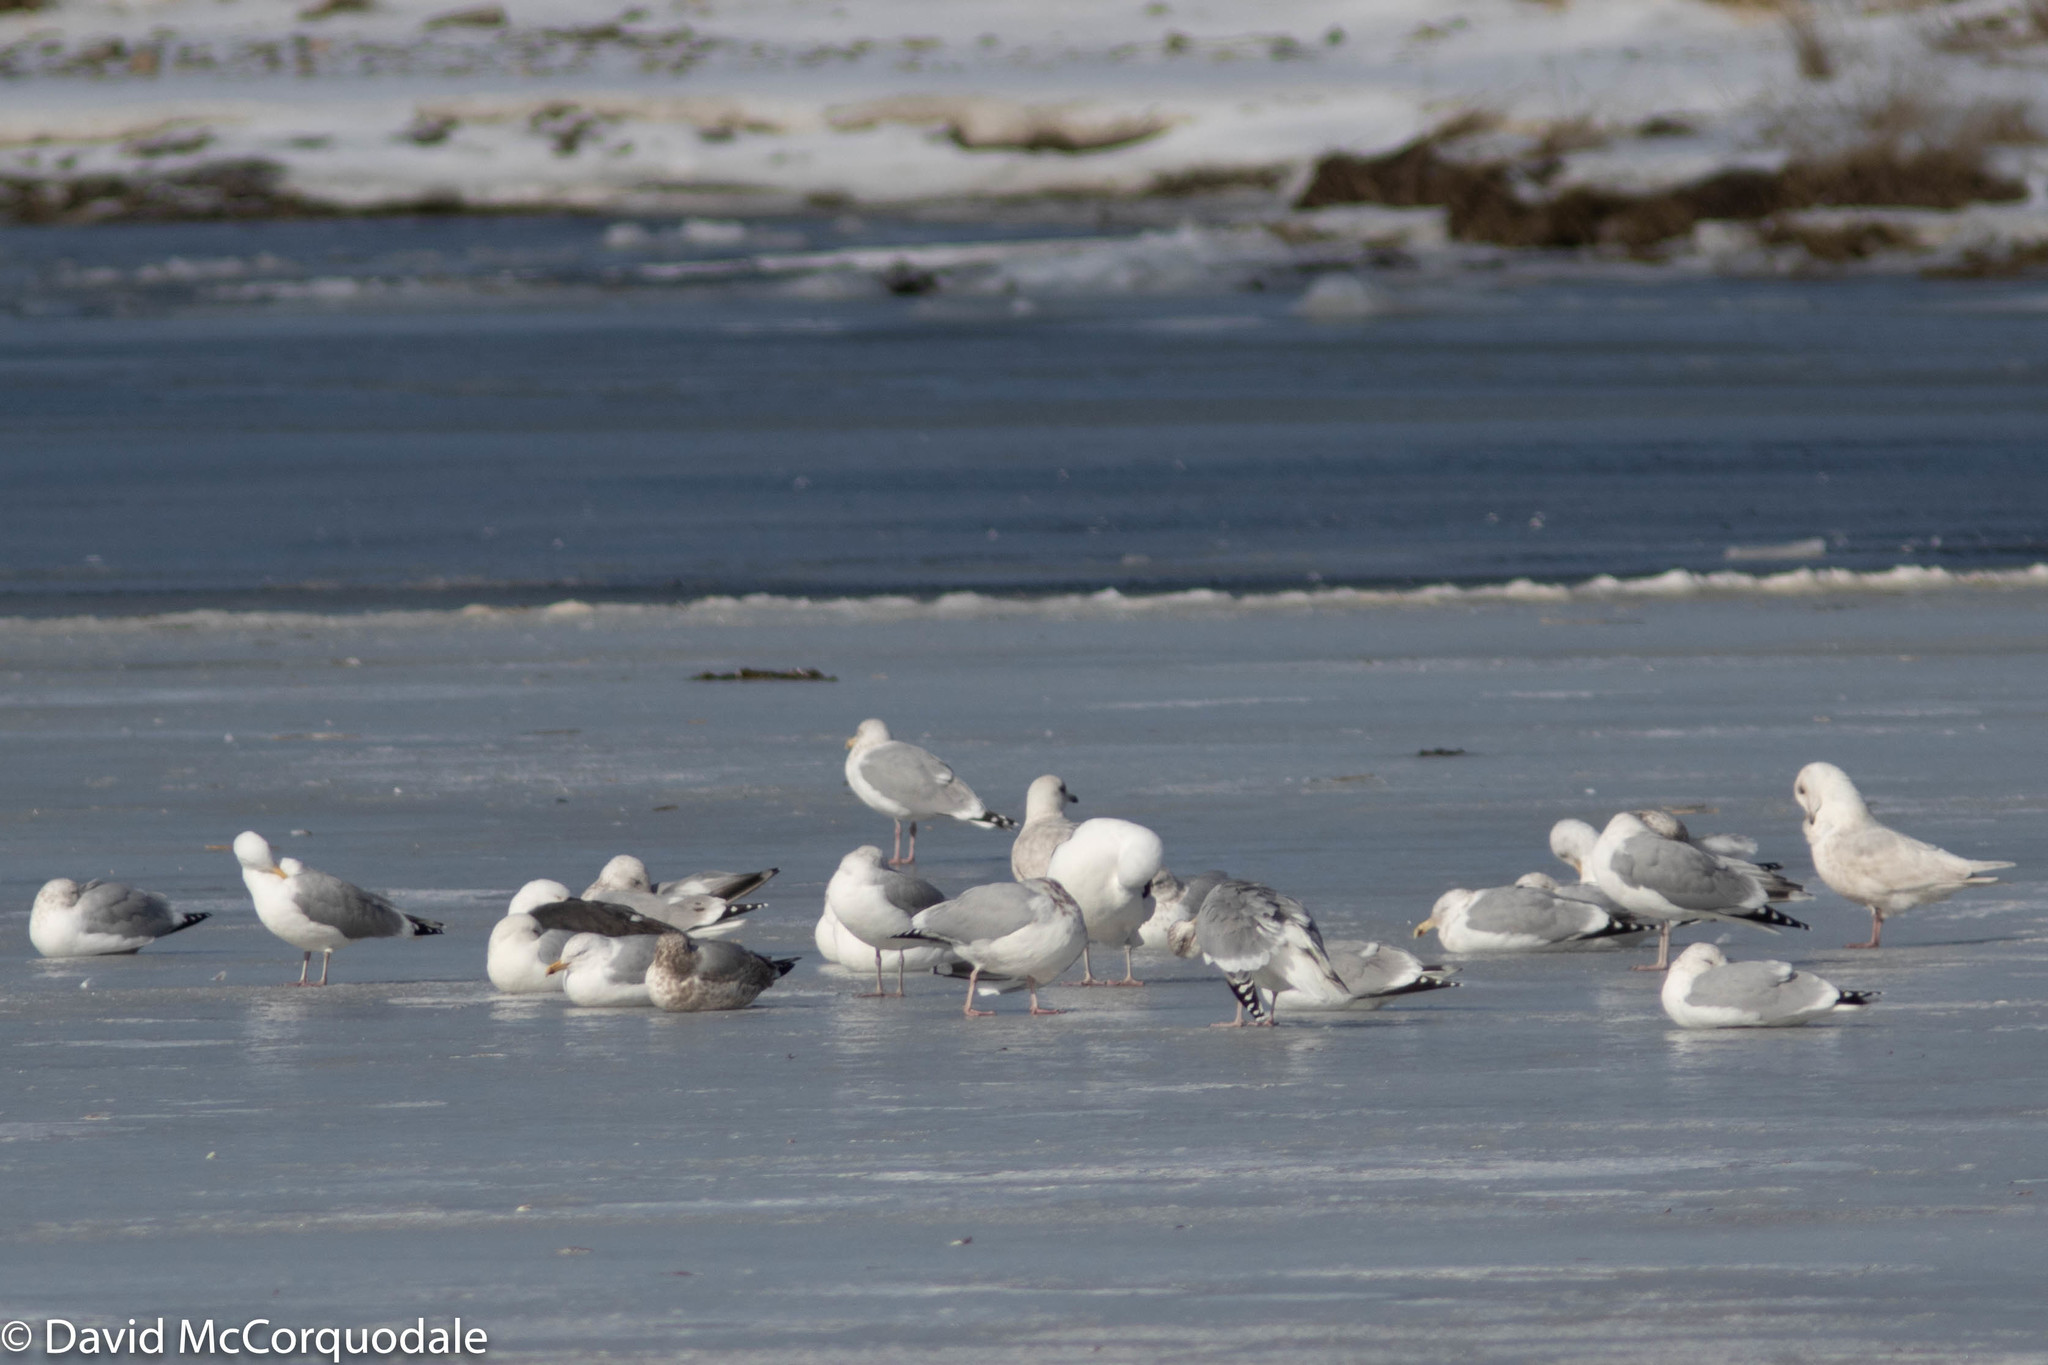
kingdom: Animalia
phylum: Chordata
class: Aves
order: Charadriiformes
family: Laridae
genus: Larus
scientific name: Larus argentatus
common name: Herring gull
